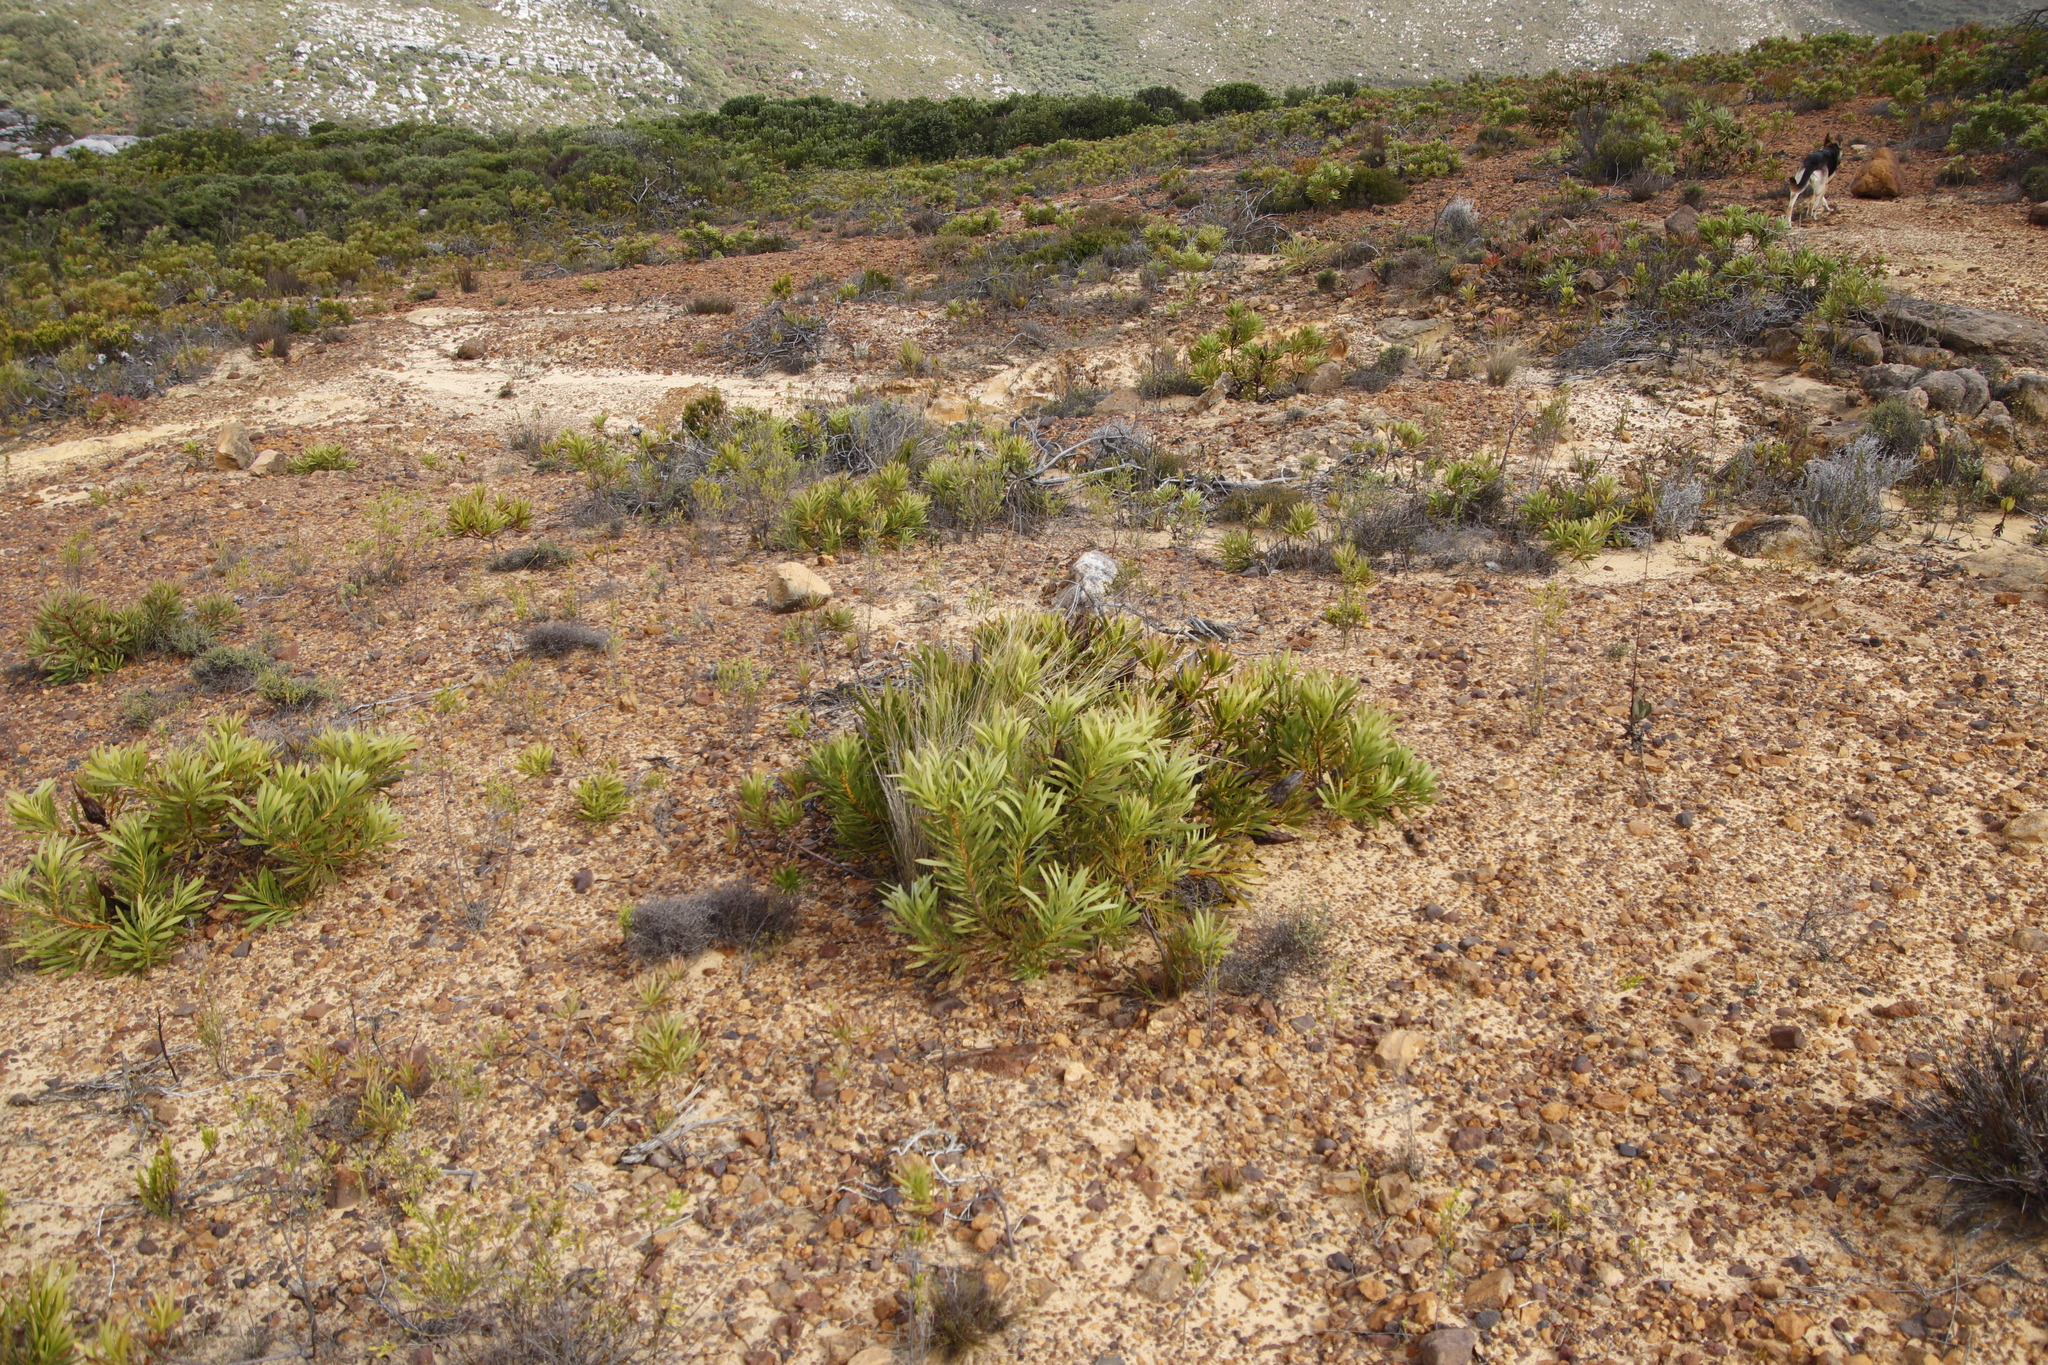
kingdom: Plantae
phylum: Tracheophyta
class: Magnoliopsida
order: Proteales
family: Proteaceae
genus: Protea
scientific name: Protea repens
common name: Sugarbush
